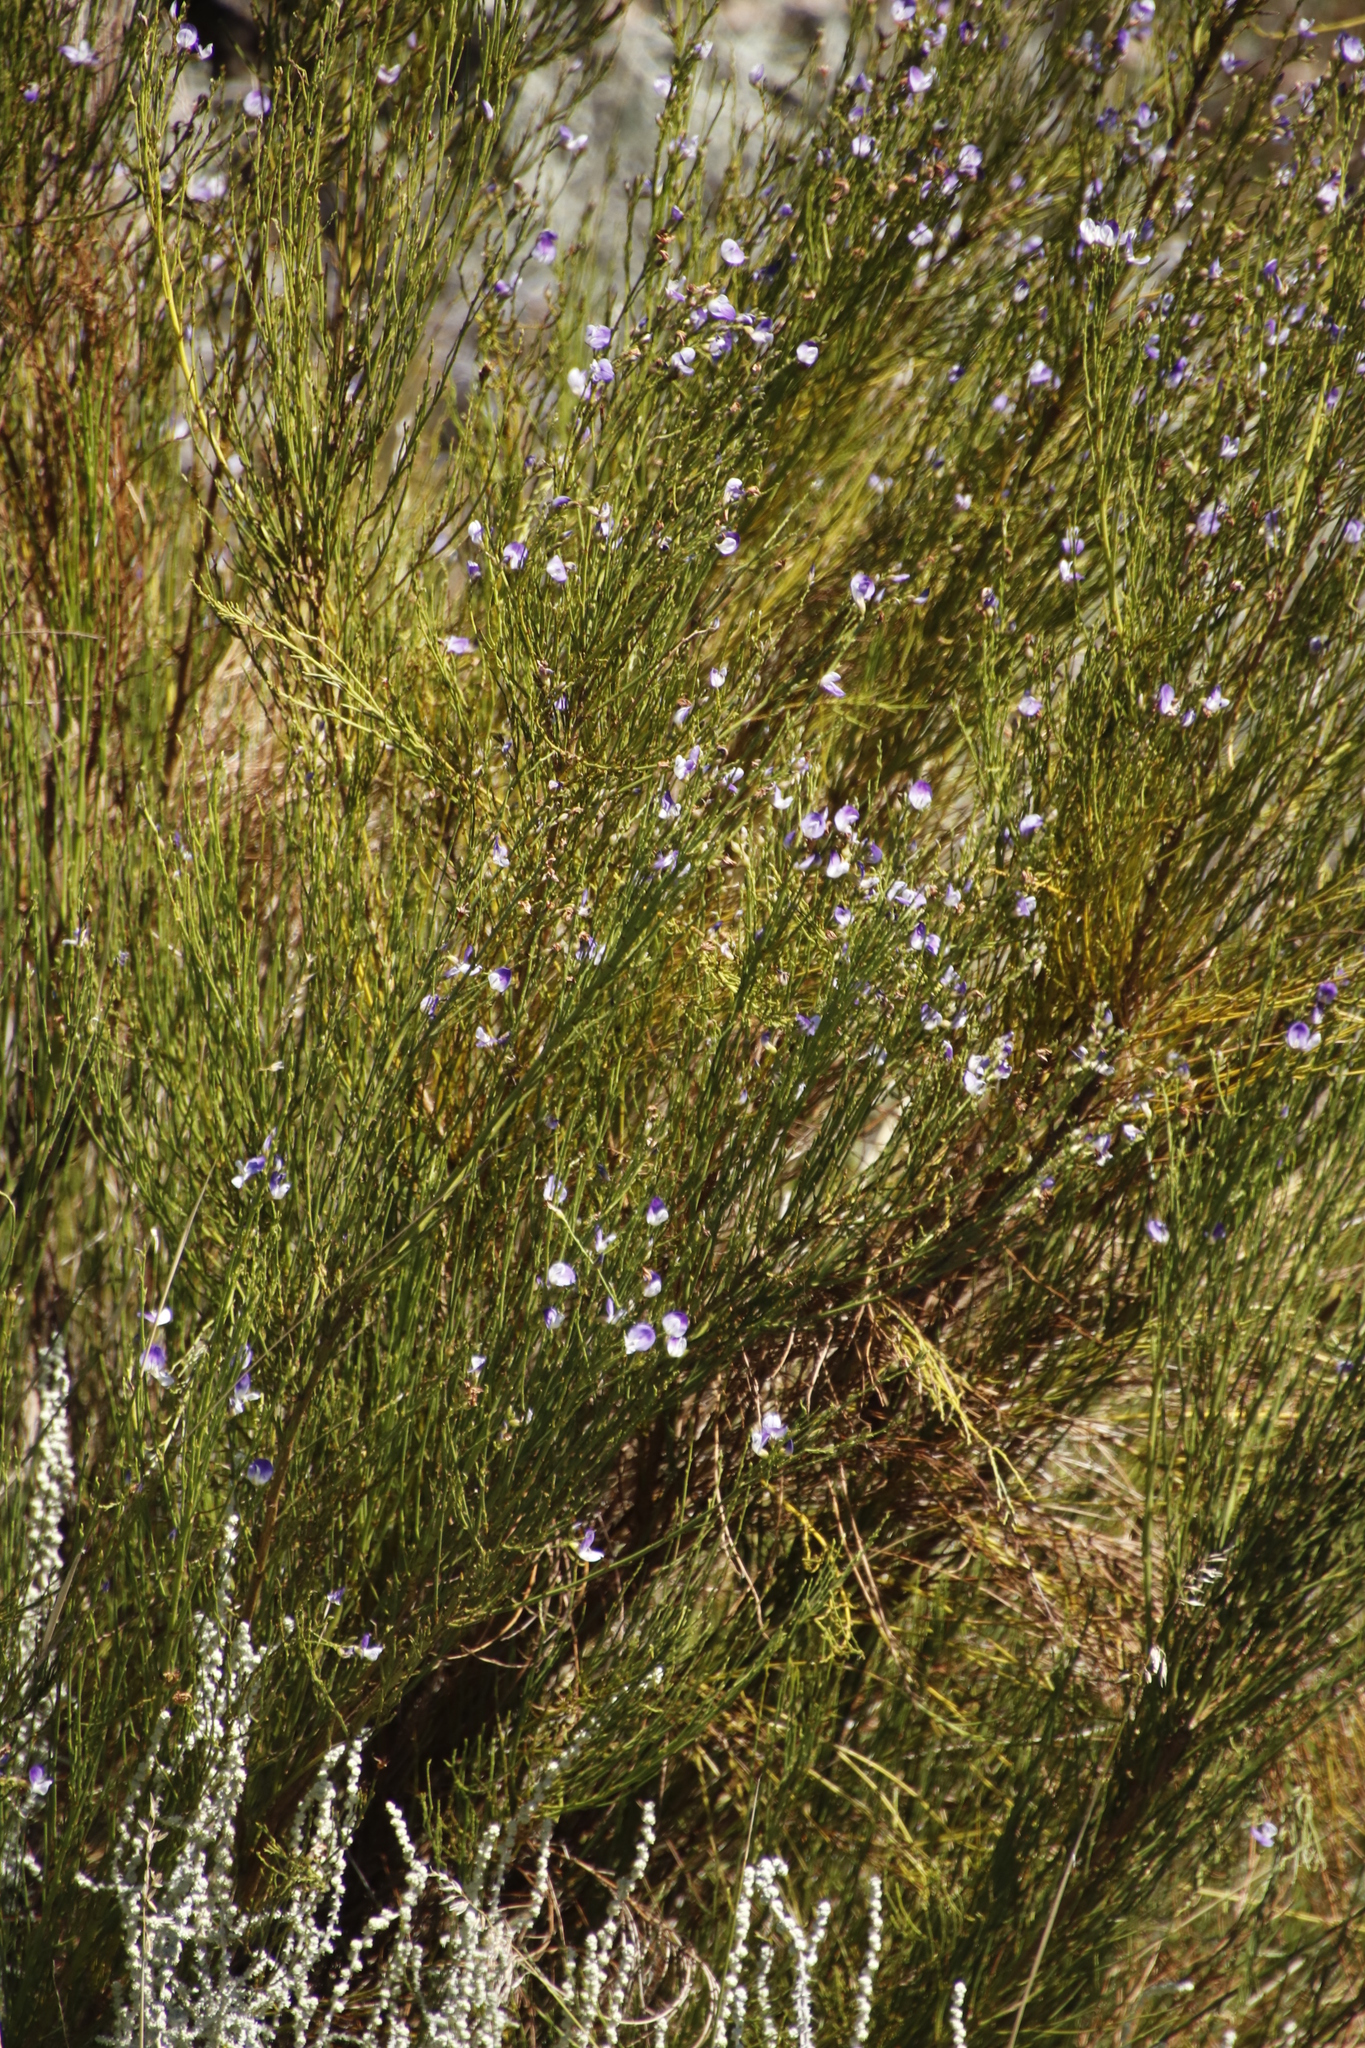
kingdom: Plantae
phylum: Tracheophyta
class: Magnoliopsida
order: Fabales
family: Fabaceae
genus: Psoralea
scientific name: Psoralea usitata
